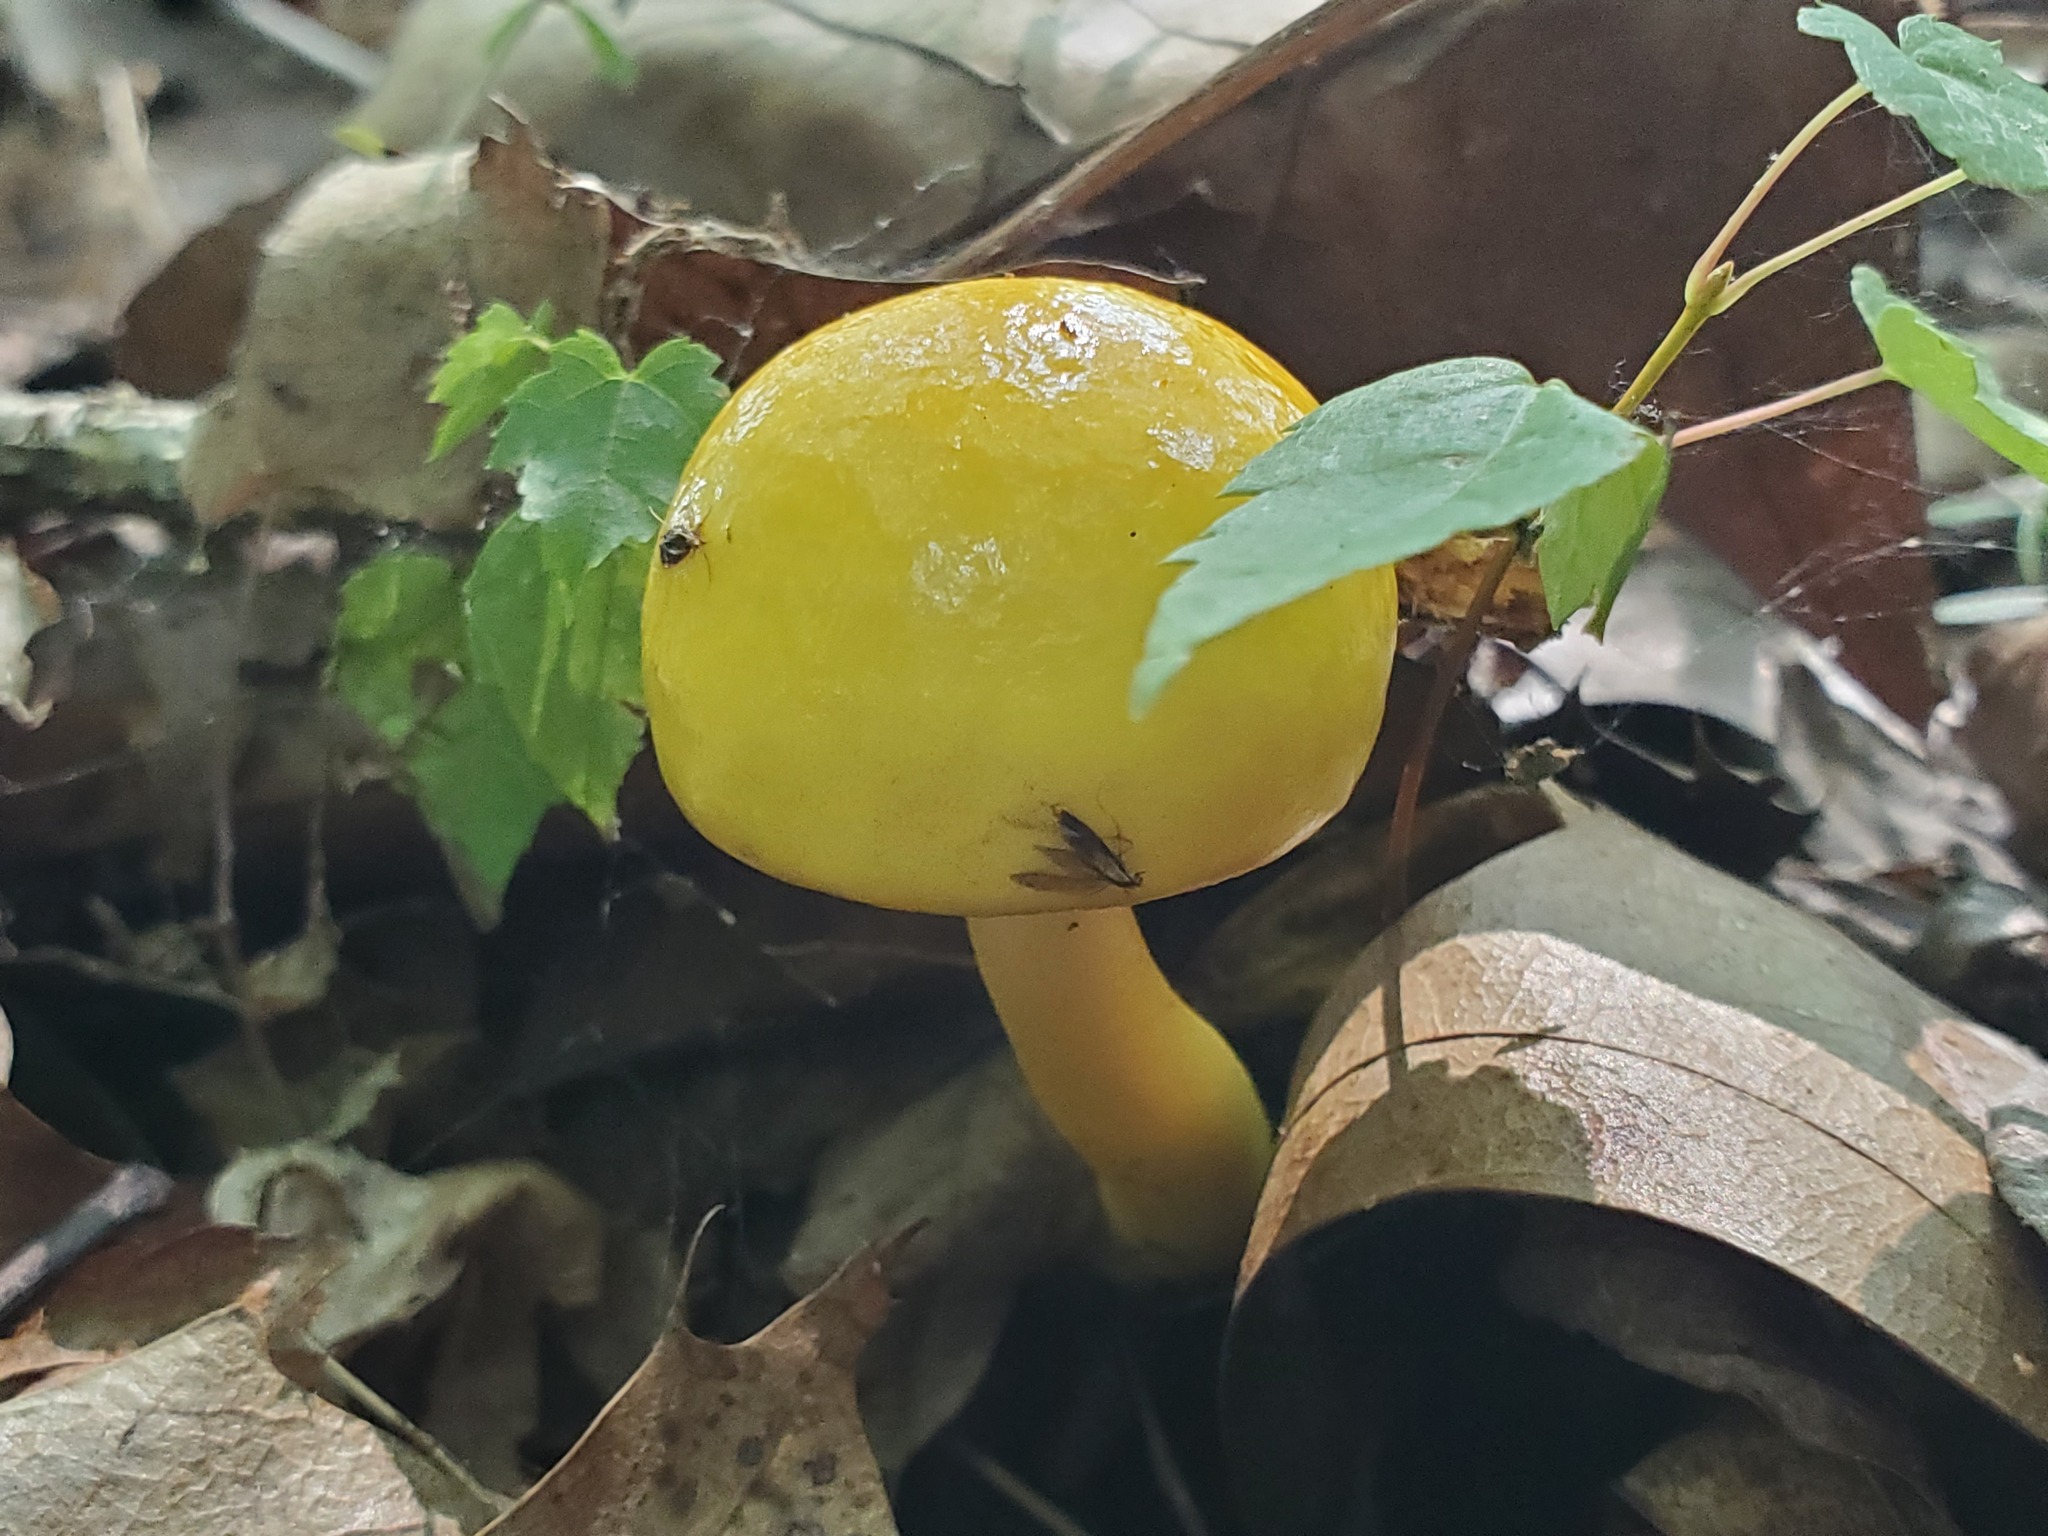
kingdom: Fungi
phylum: Basidiomycota
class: Agaricomycetes
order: Boletales
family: Boletaceae
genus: Pulveroboletus
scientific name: Pulveroboletus curtisii
